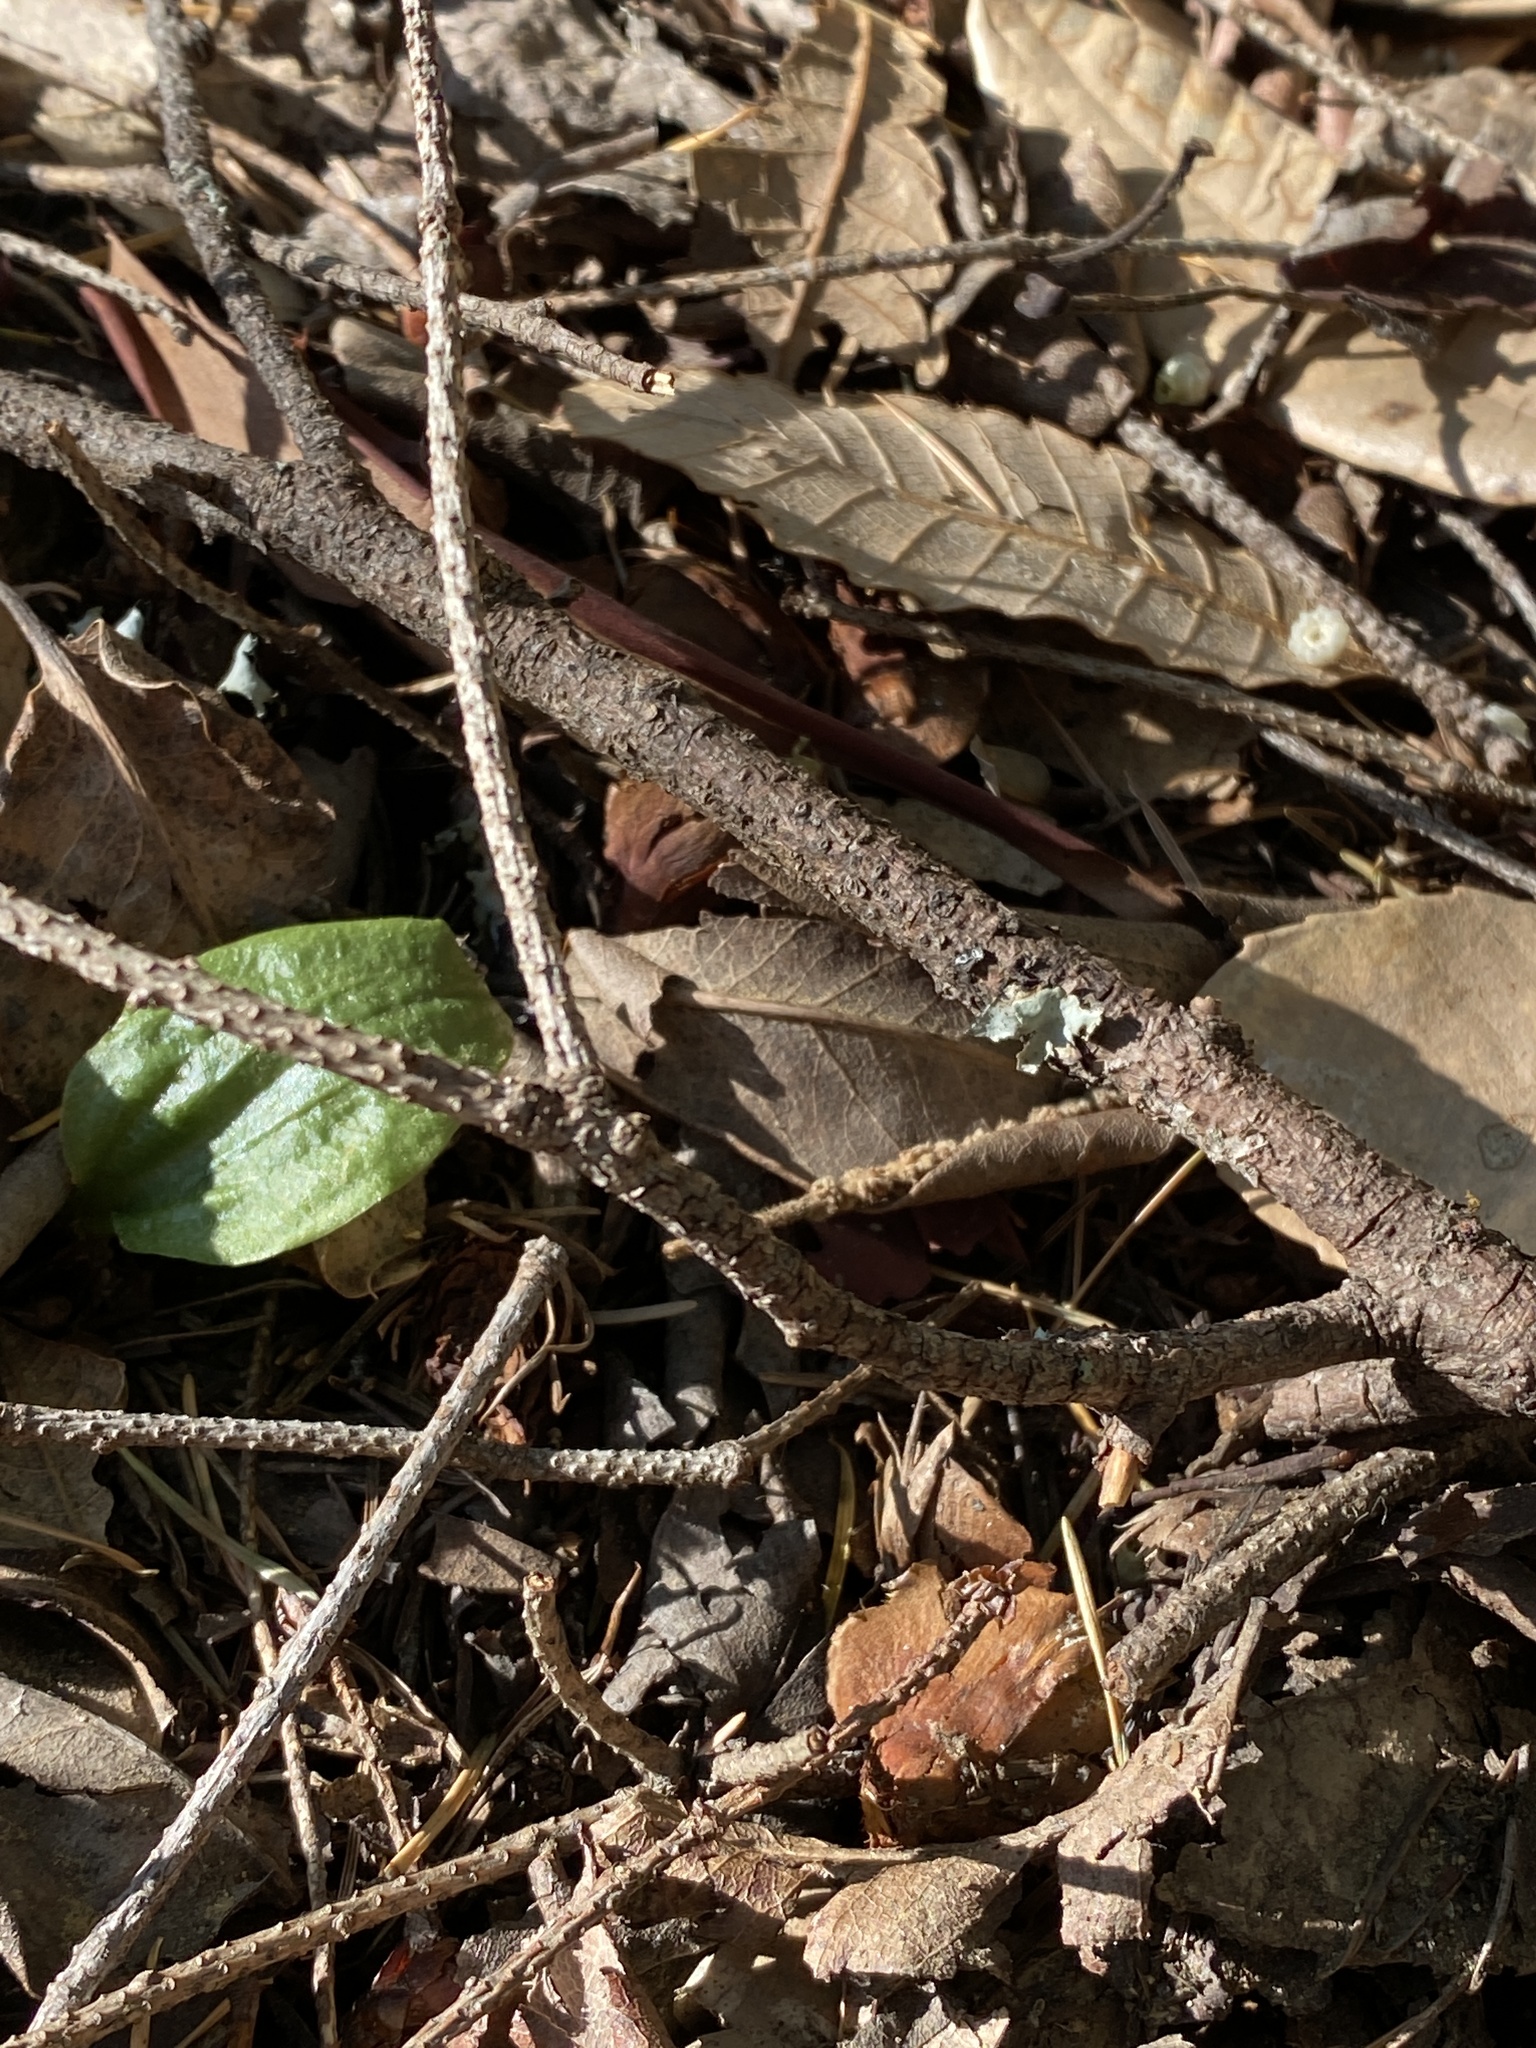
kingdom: Plantae
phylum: Tracheophyta
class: Liliopsida
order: Asparagales
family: Orchidaceae
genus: Calypso
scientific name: Calypso bulbosa
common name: Calypso
